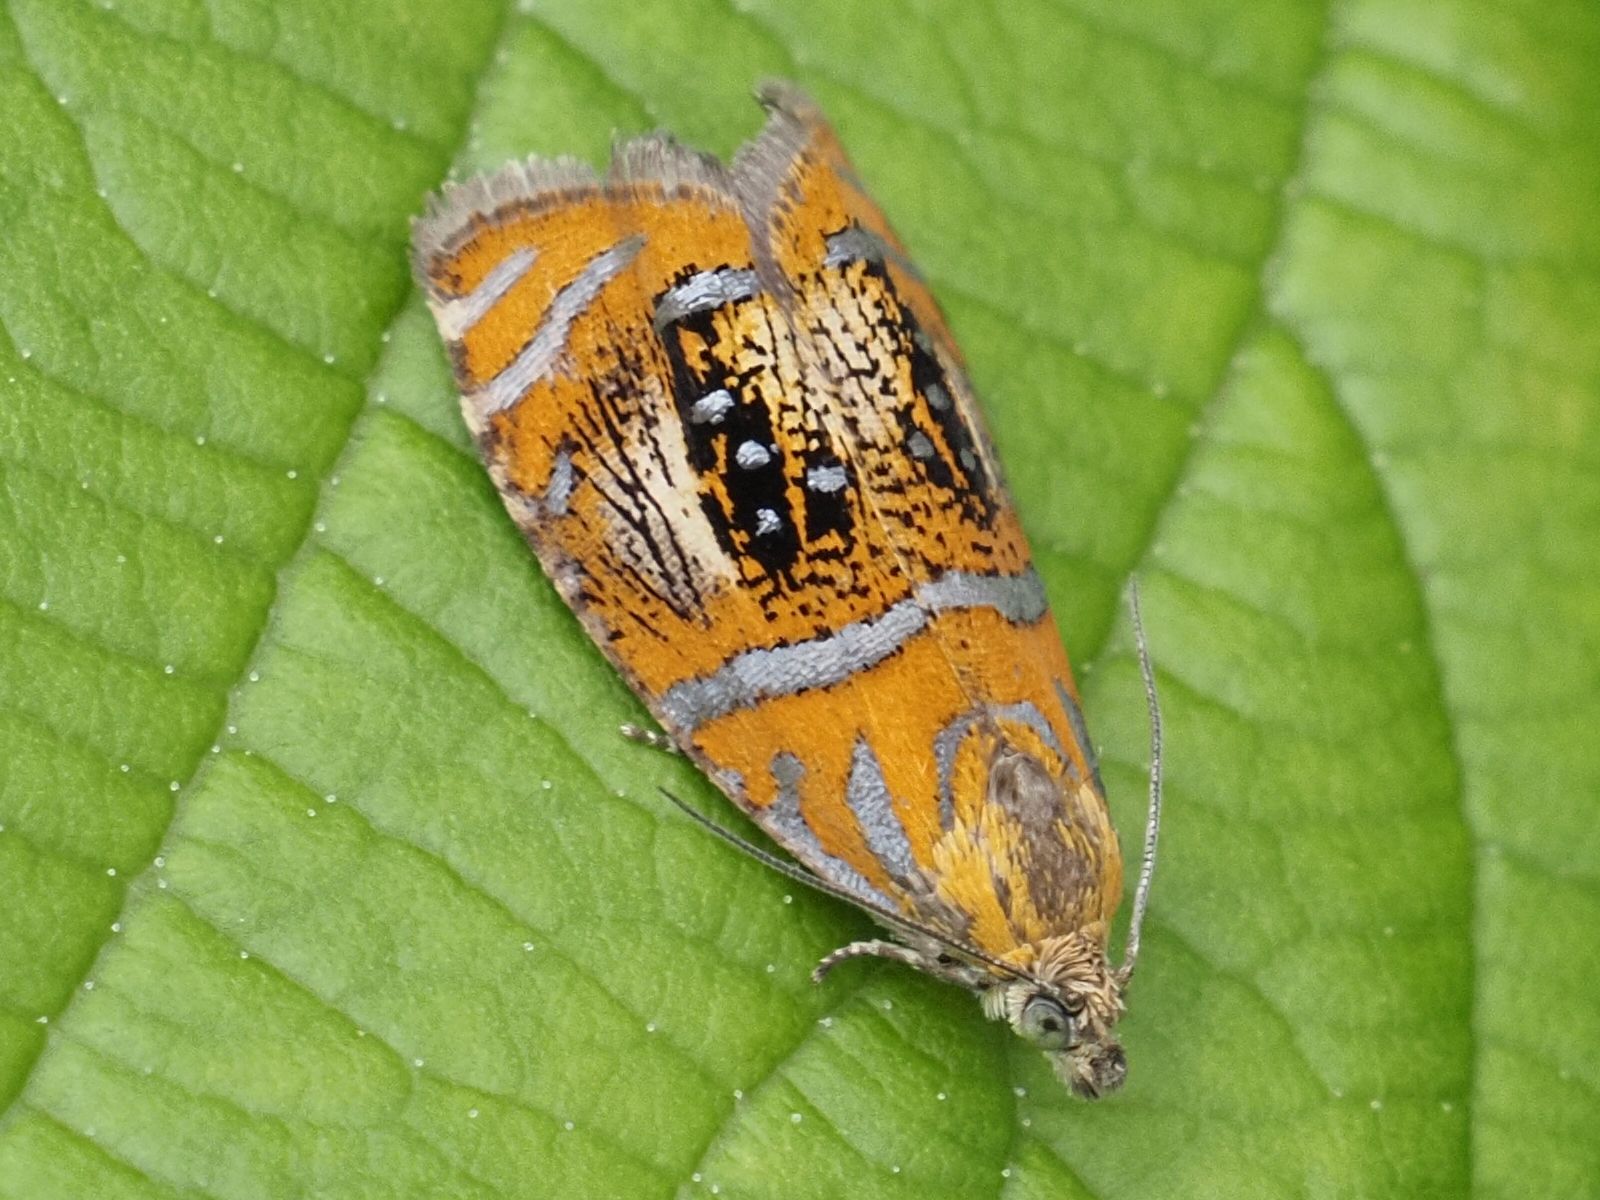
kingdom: Animalia
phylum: Arthropoda
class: Insecta
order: Lepidoptera
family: Tortricidae
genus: Olethreutes
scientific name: Olethreutes arcuella
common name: Arched marble
